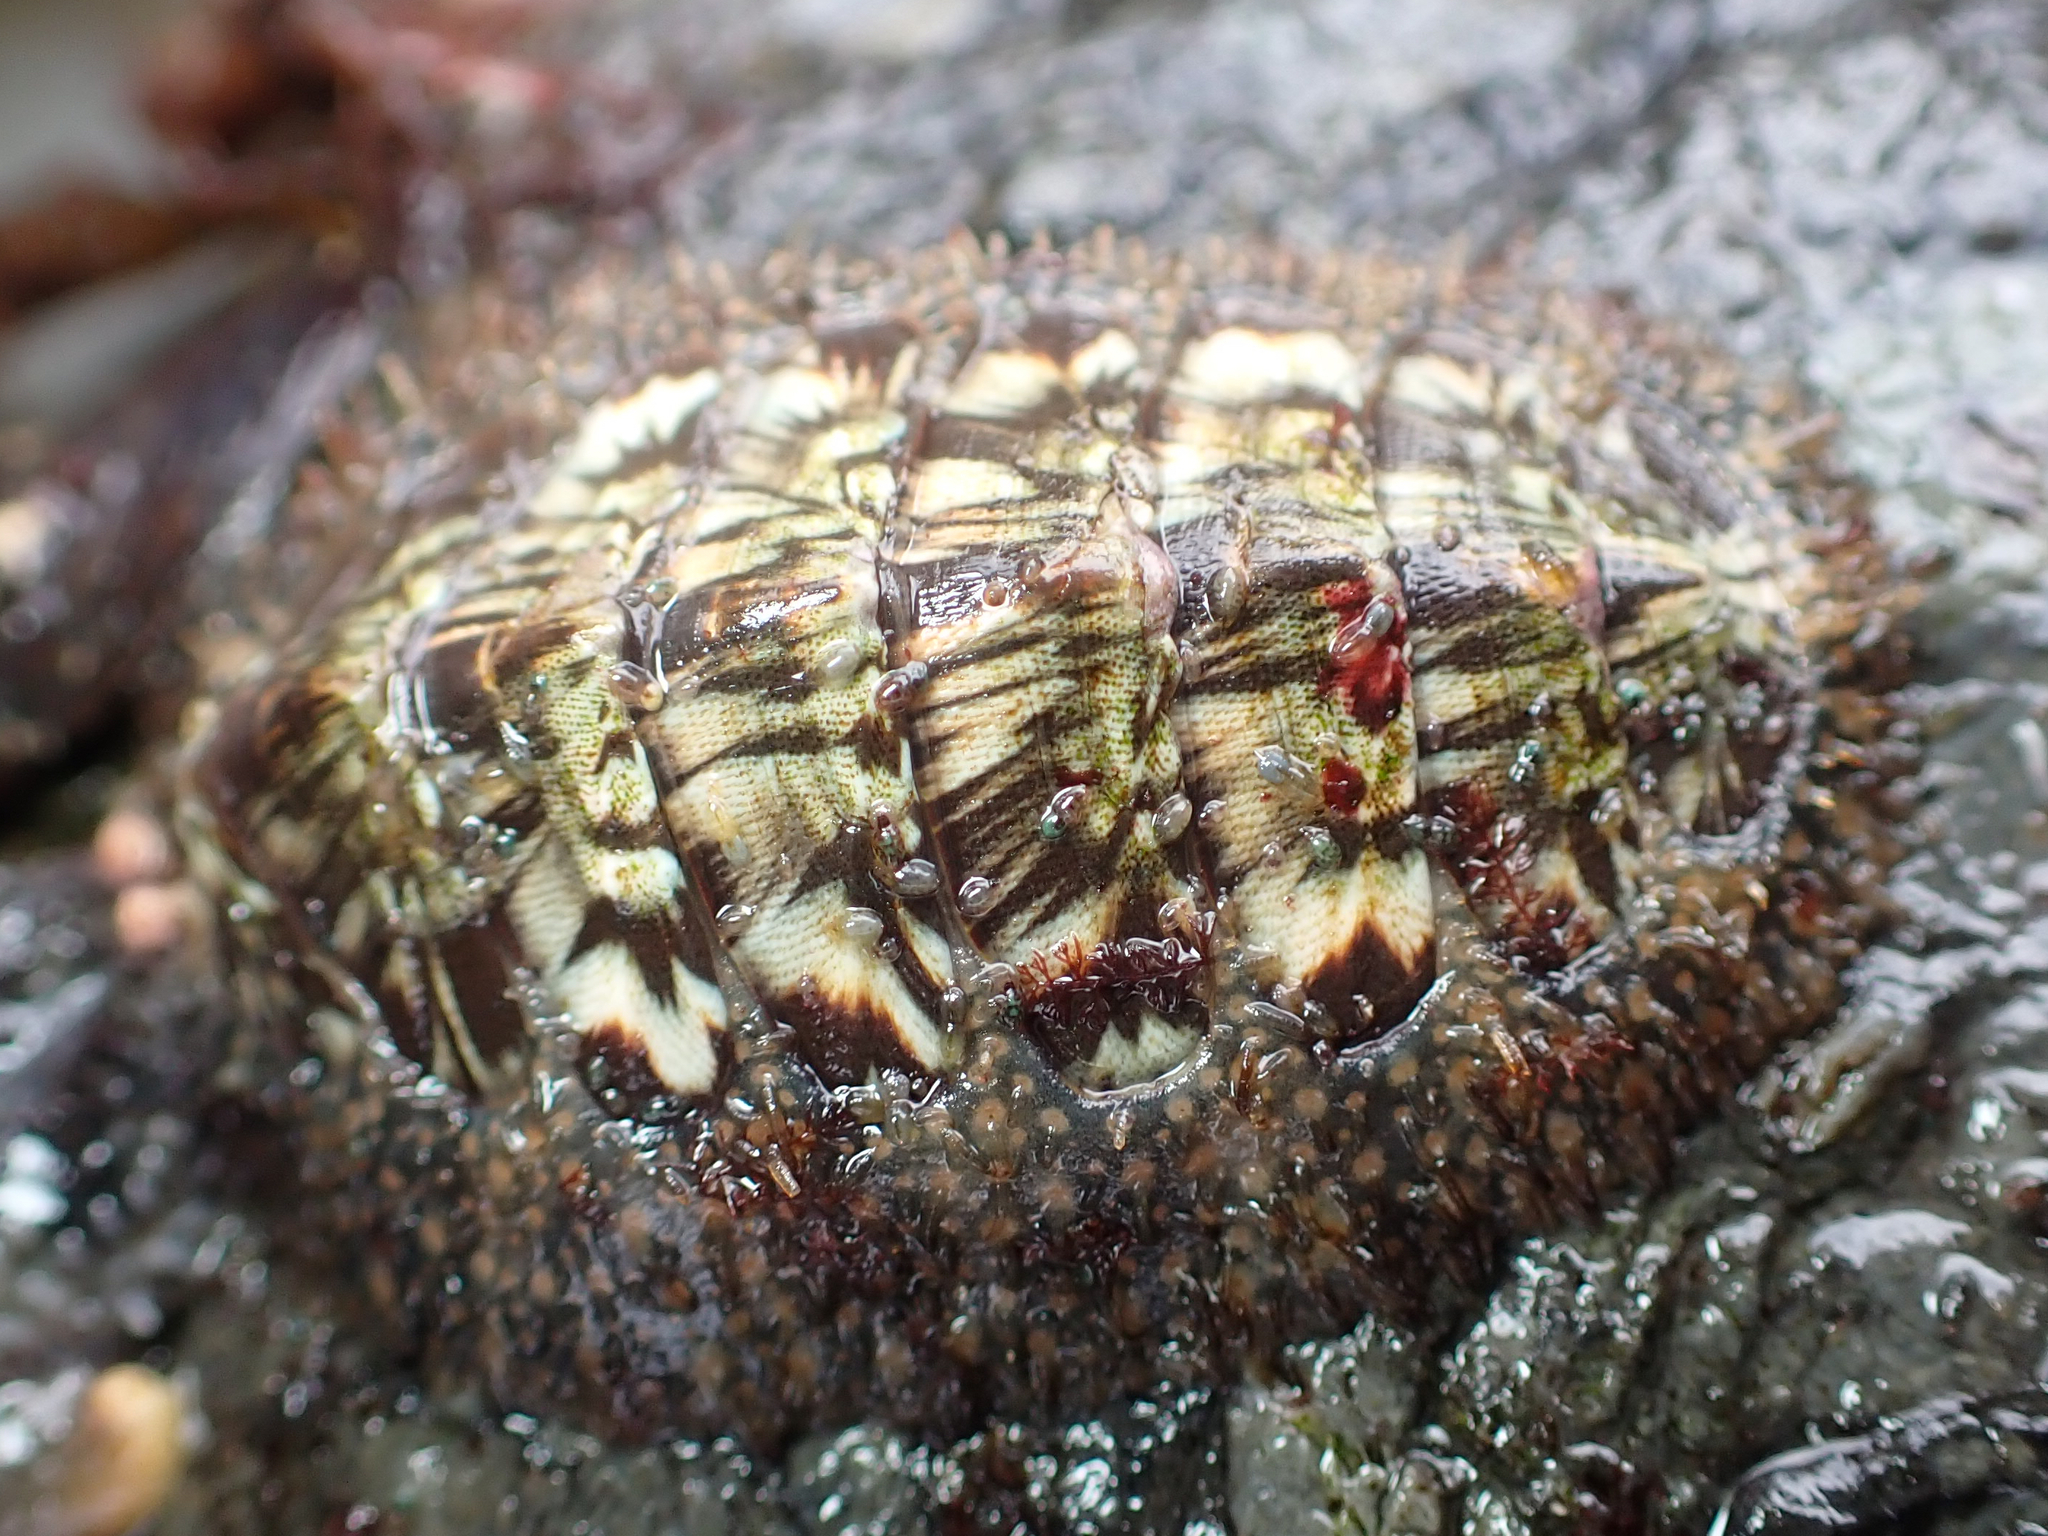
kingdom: Animalia
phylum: Mollusca
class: Polyplacophora
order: Chitonida
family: Mopaliidae
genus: Mopalia
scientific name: Mopalia lignosa
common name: Woody chiton
